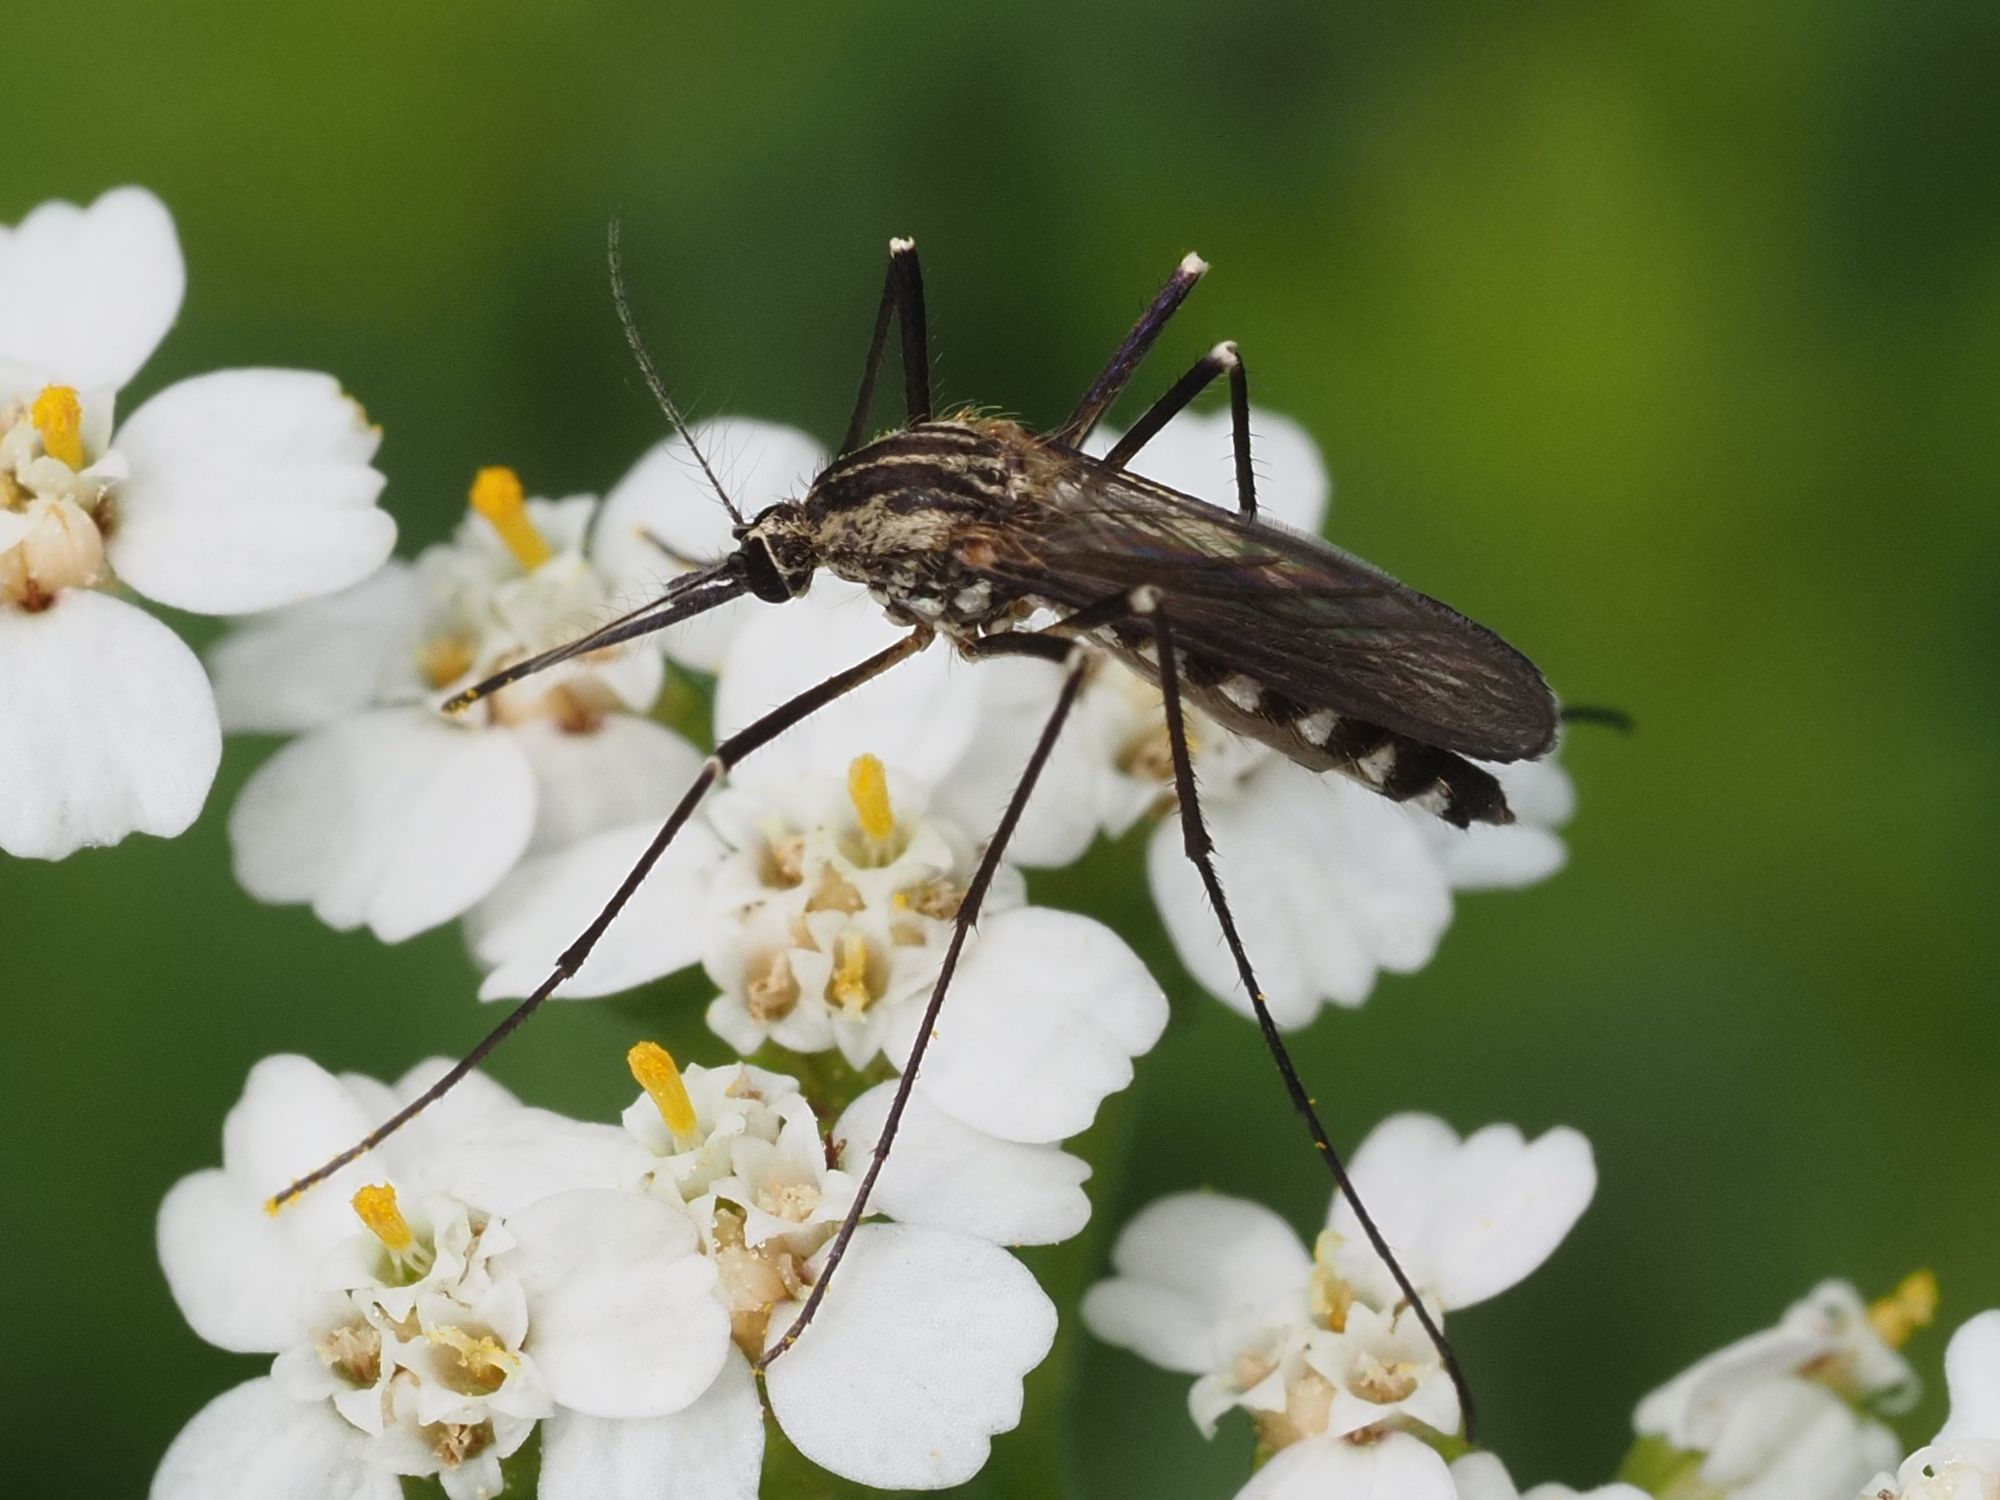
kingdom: Animalia
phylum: Arthropoda
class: Insecta
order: Diptera
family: Culicidae
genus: Aedes
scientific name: Aedes geniculatus
